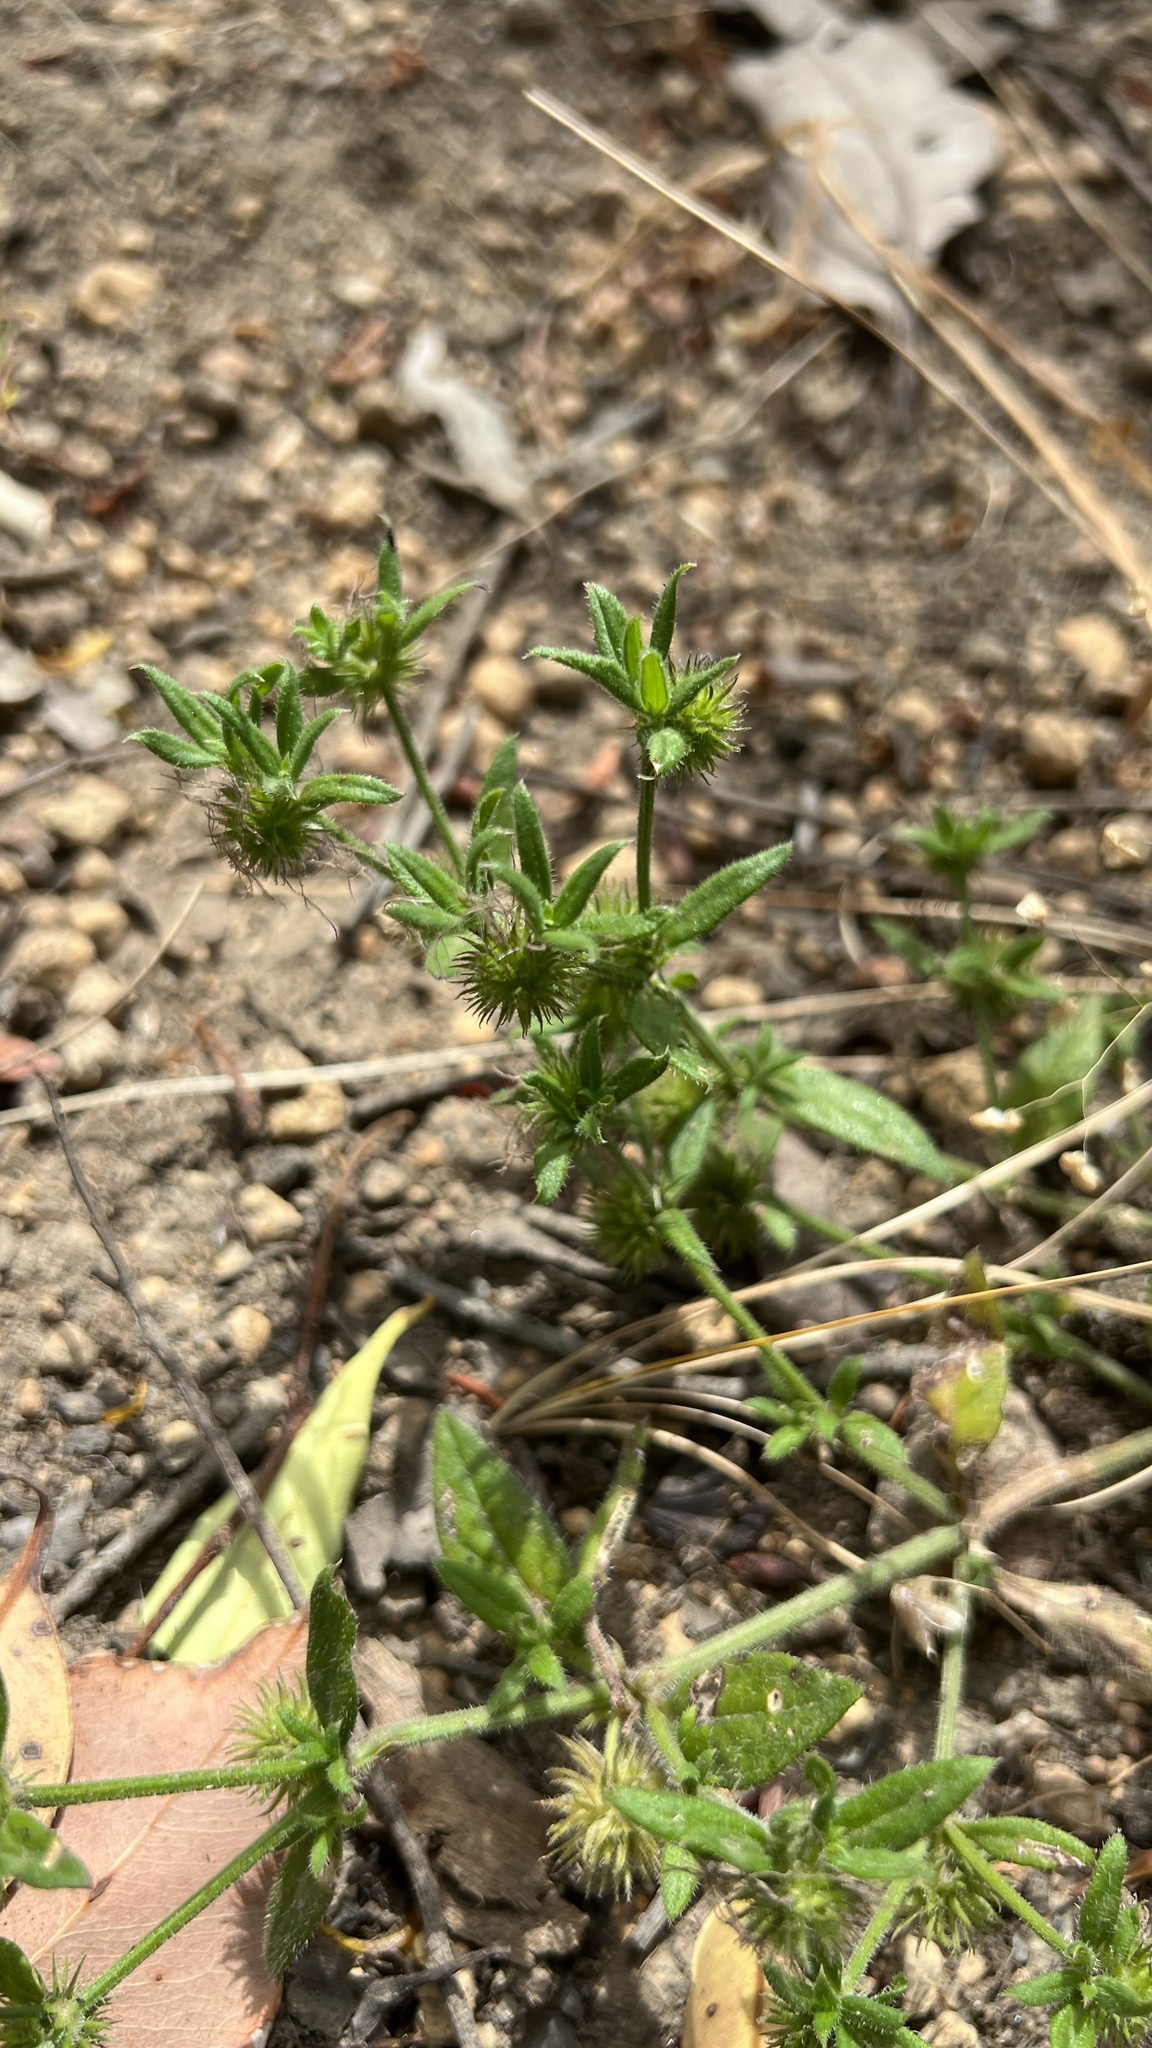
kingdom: Plantae
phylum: Tracheophyta
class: Magnoliopsida
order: Gentianales
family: Rubiaceae
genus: Opercularia
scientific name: Opercularia echinocephala
